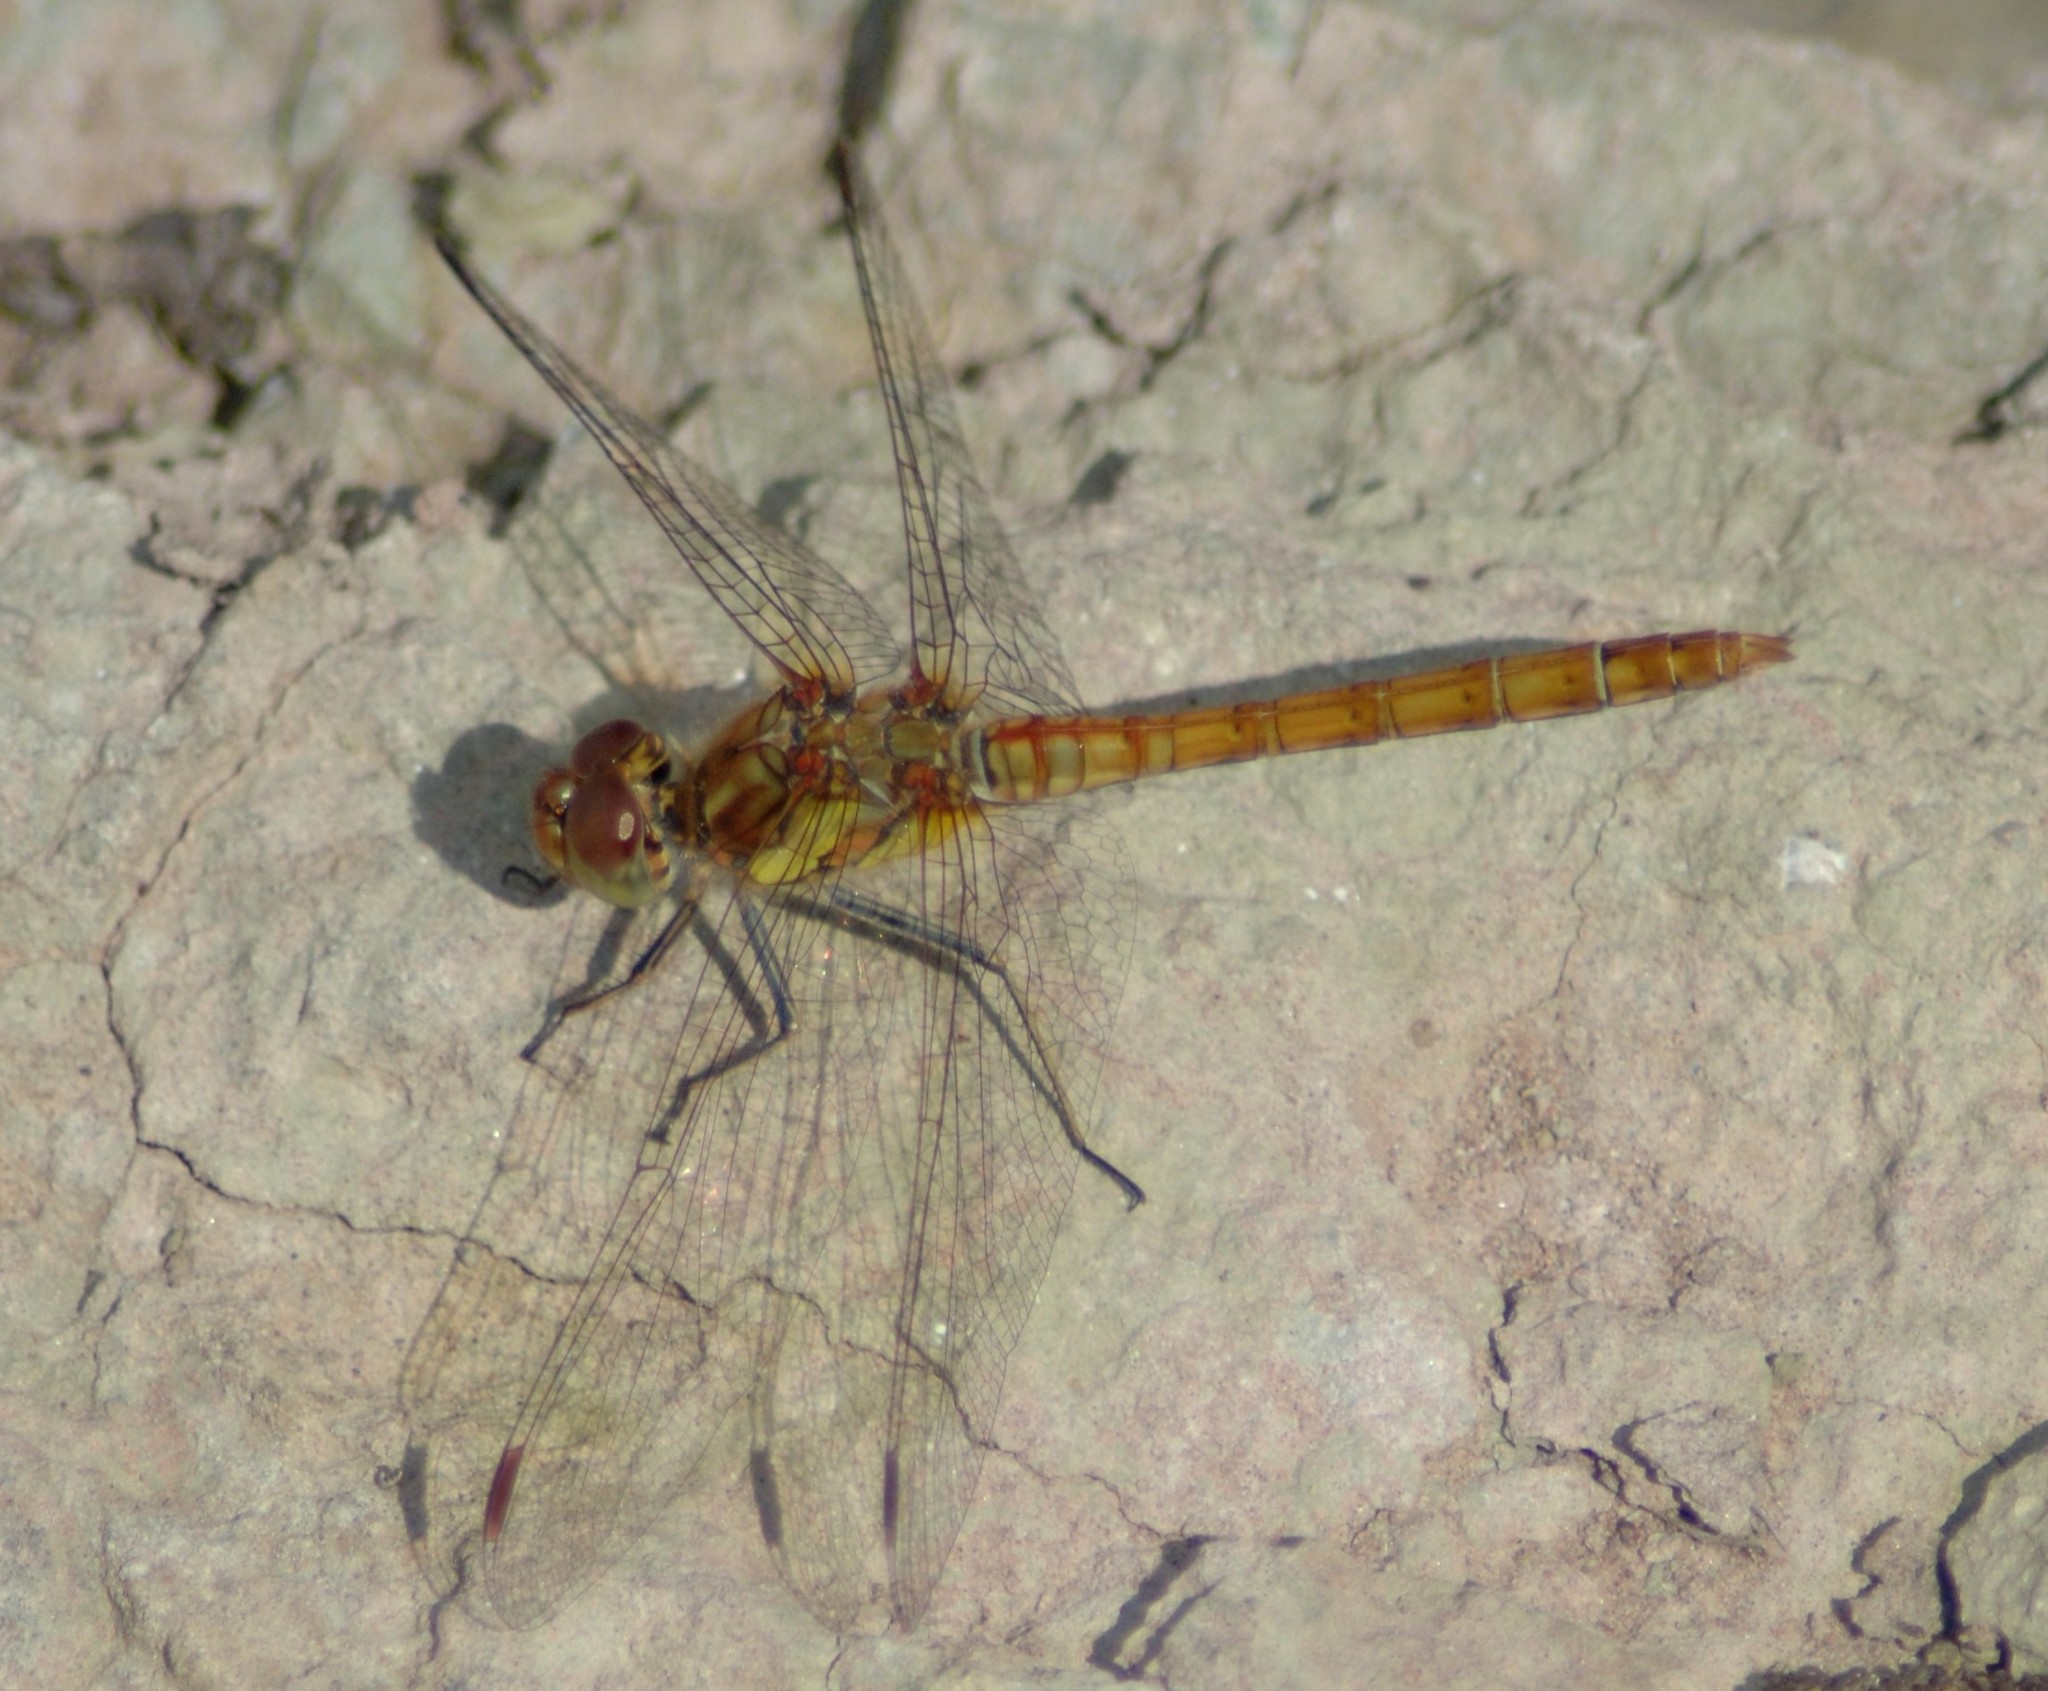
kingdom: Animalia
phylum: Arthropoda
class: Insecta
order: Odonata
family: Libellulidae
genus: Sympetrum
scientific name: Sympetrum striolatum
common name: Common darter
